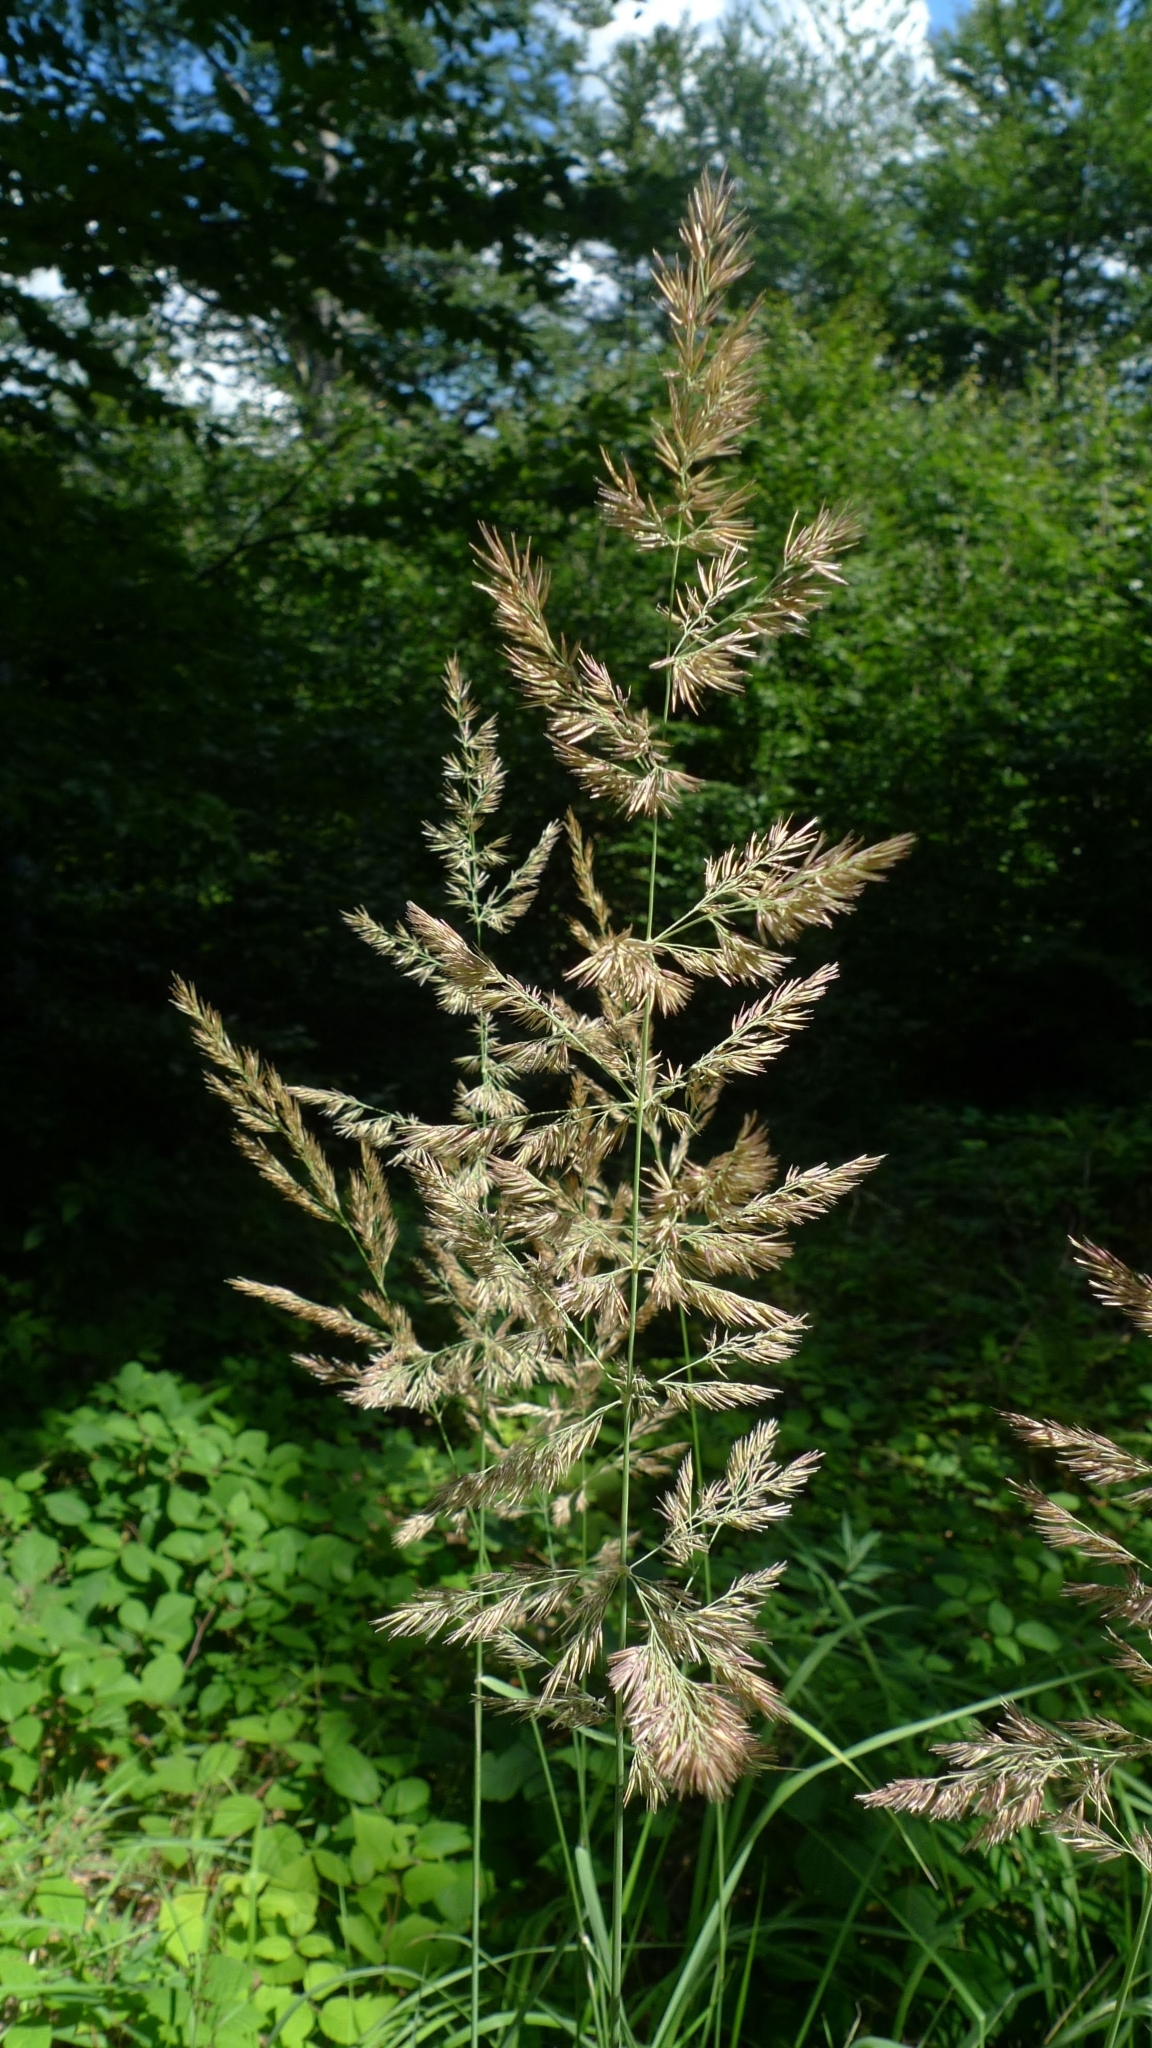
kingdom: Plantae
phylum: Tracheophyta
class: Liliopsida
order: Poales
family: Poaceae
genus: Calamagrostis
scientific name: Calamagrostis epigejos
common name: Wood small-reed
